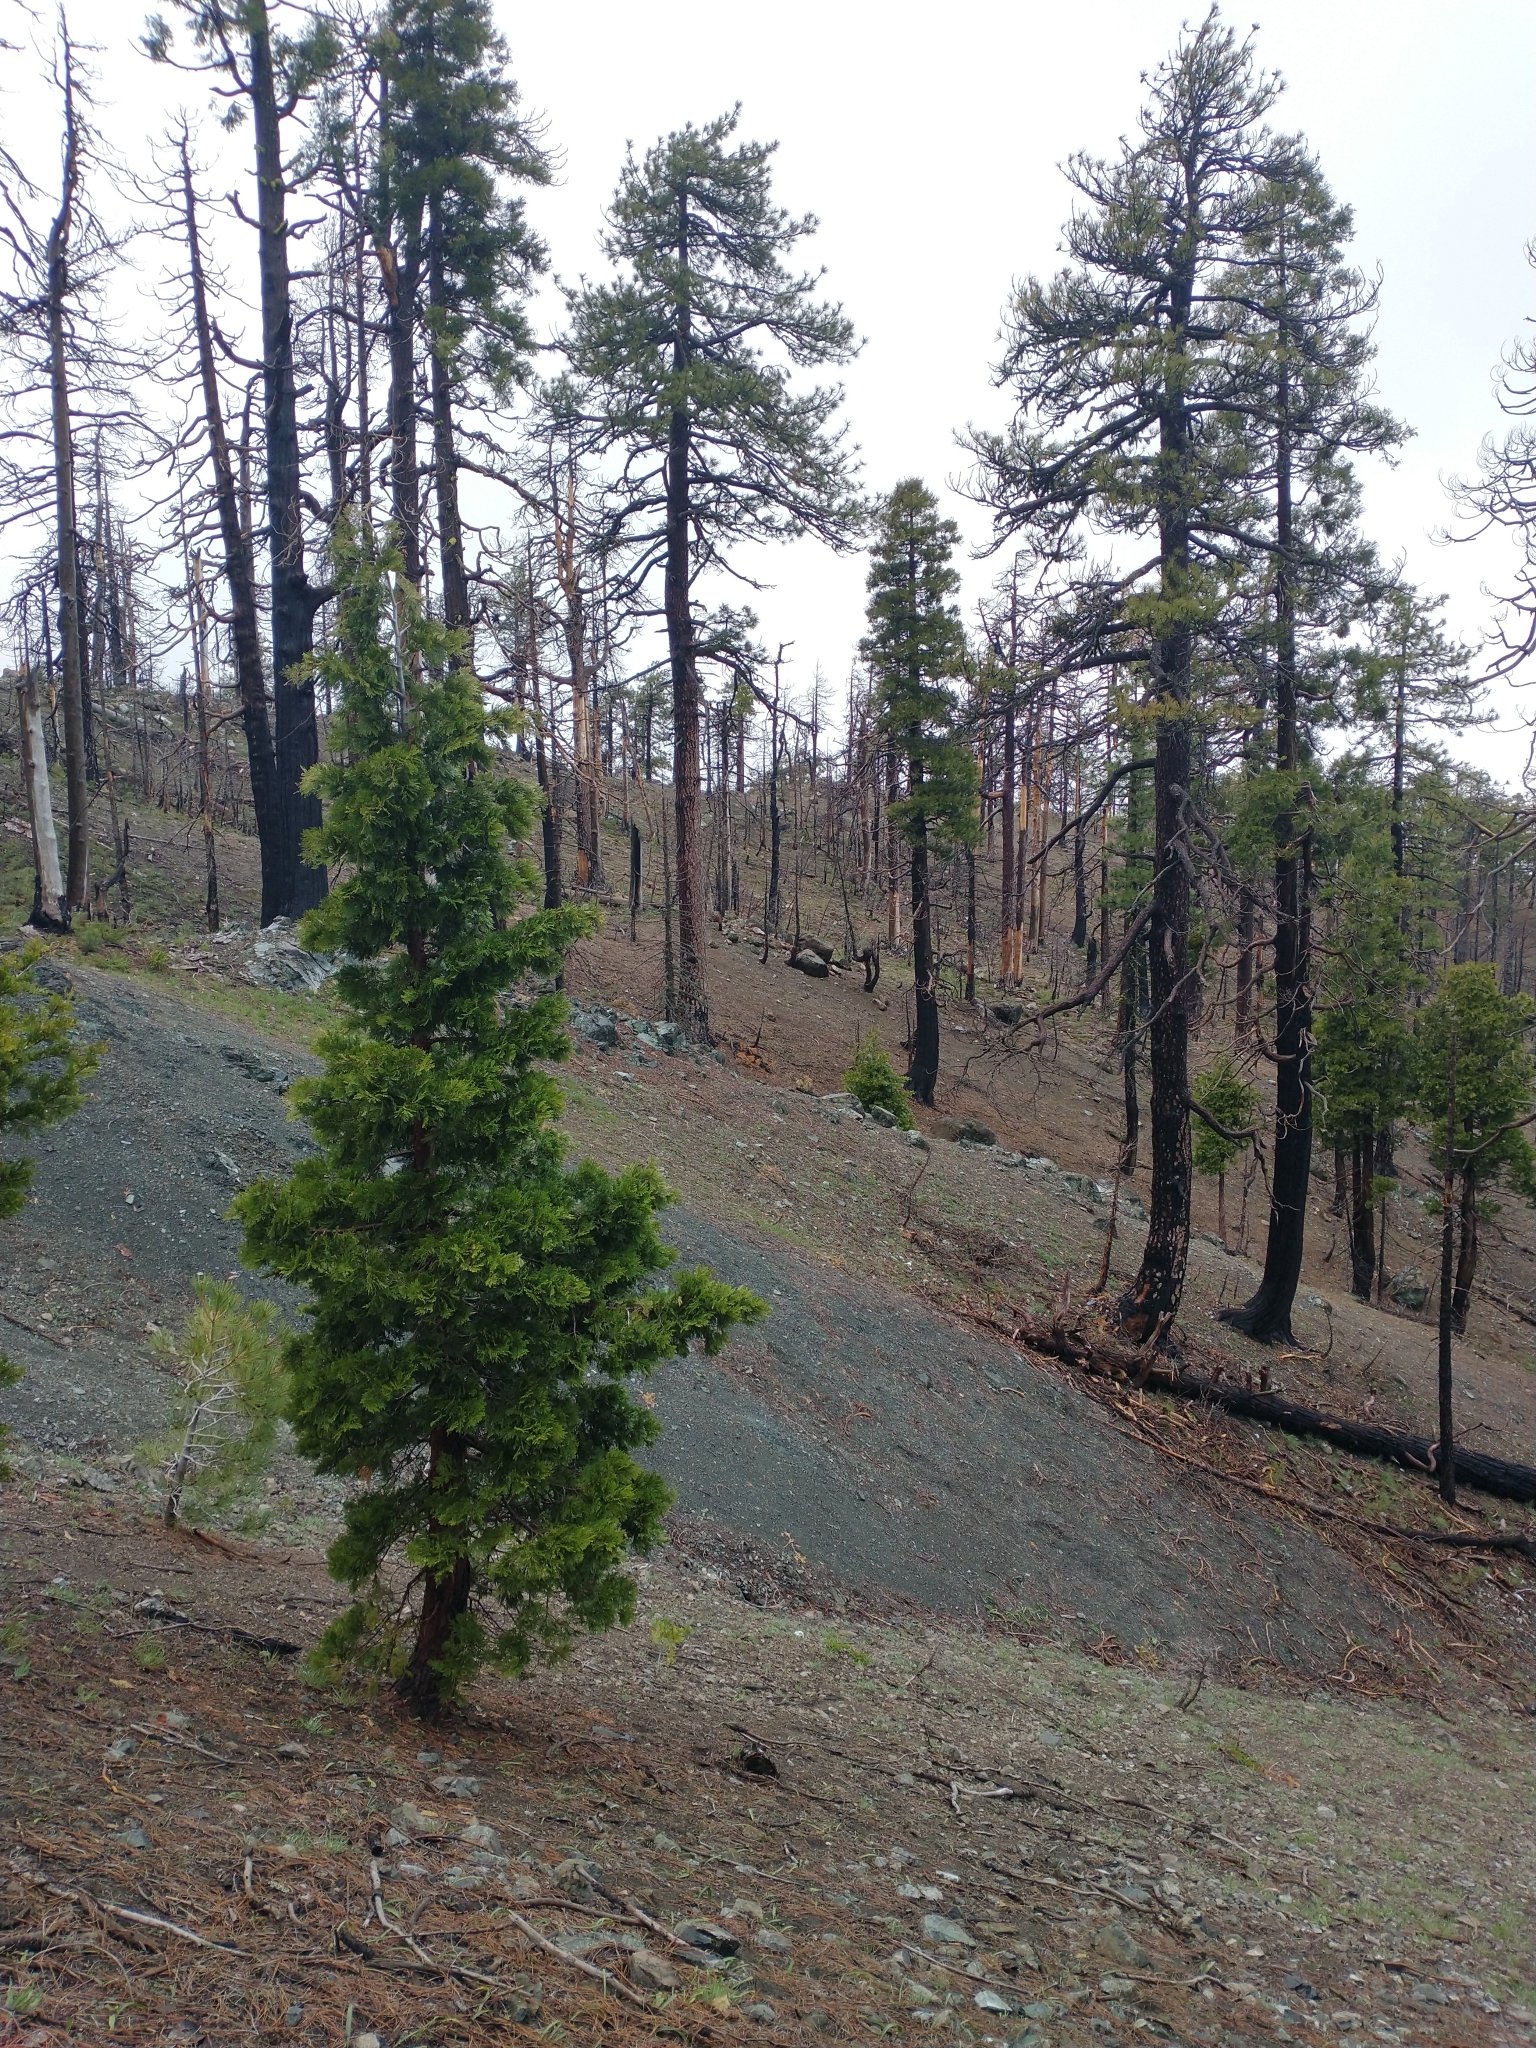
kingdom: Plantae
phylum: Tracheophyta
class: Pinopsida
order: Pinales
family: Cupressaceae
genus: Calocedrus
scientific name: Calocedrus decurrens
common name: Californian incense-cedar
